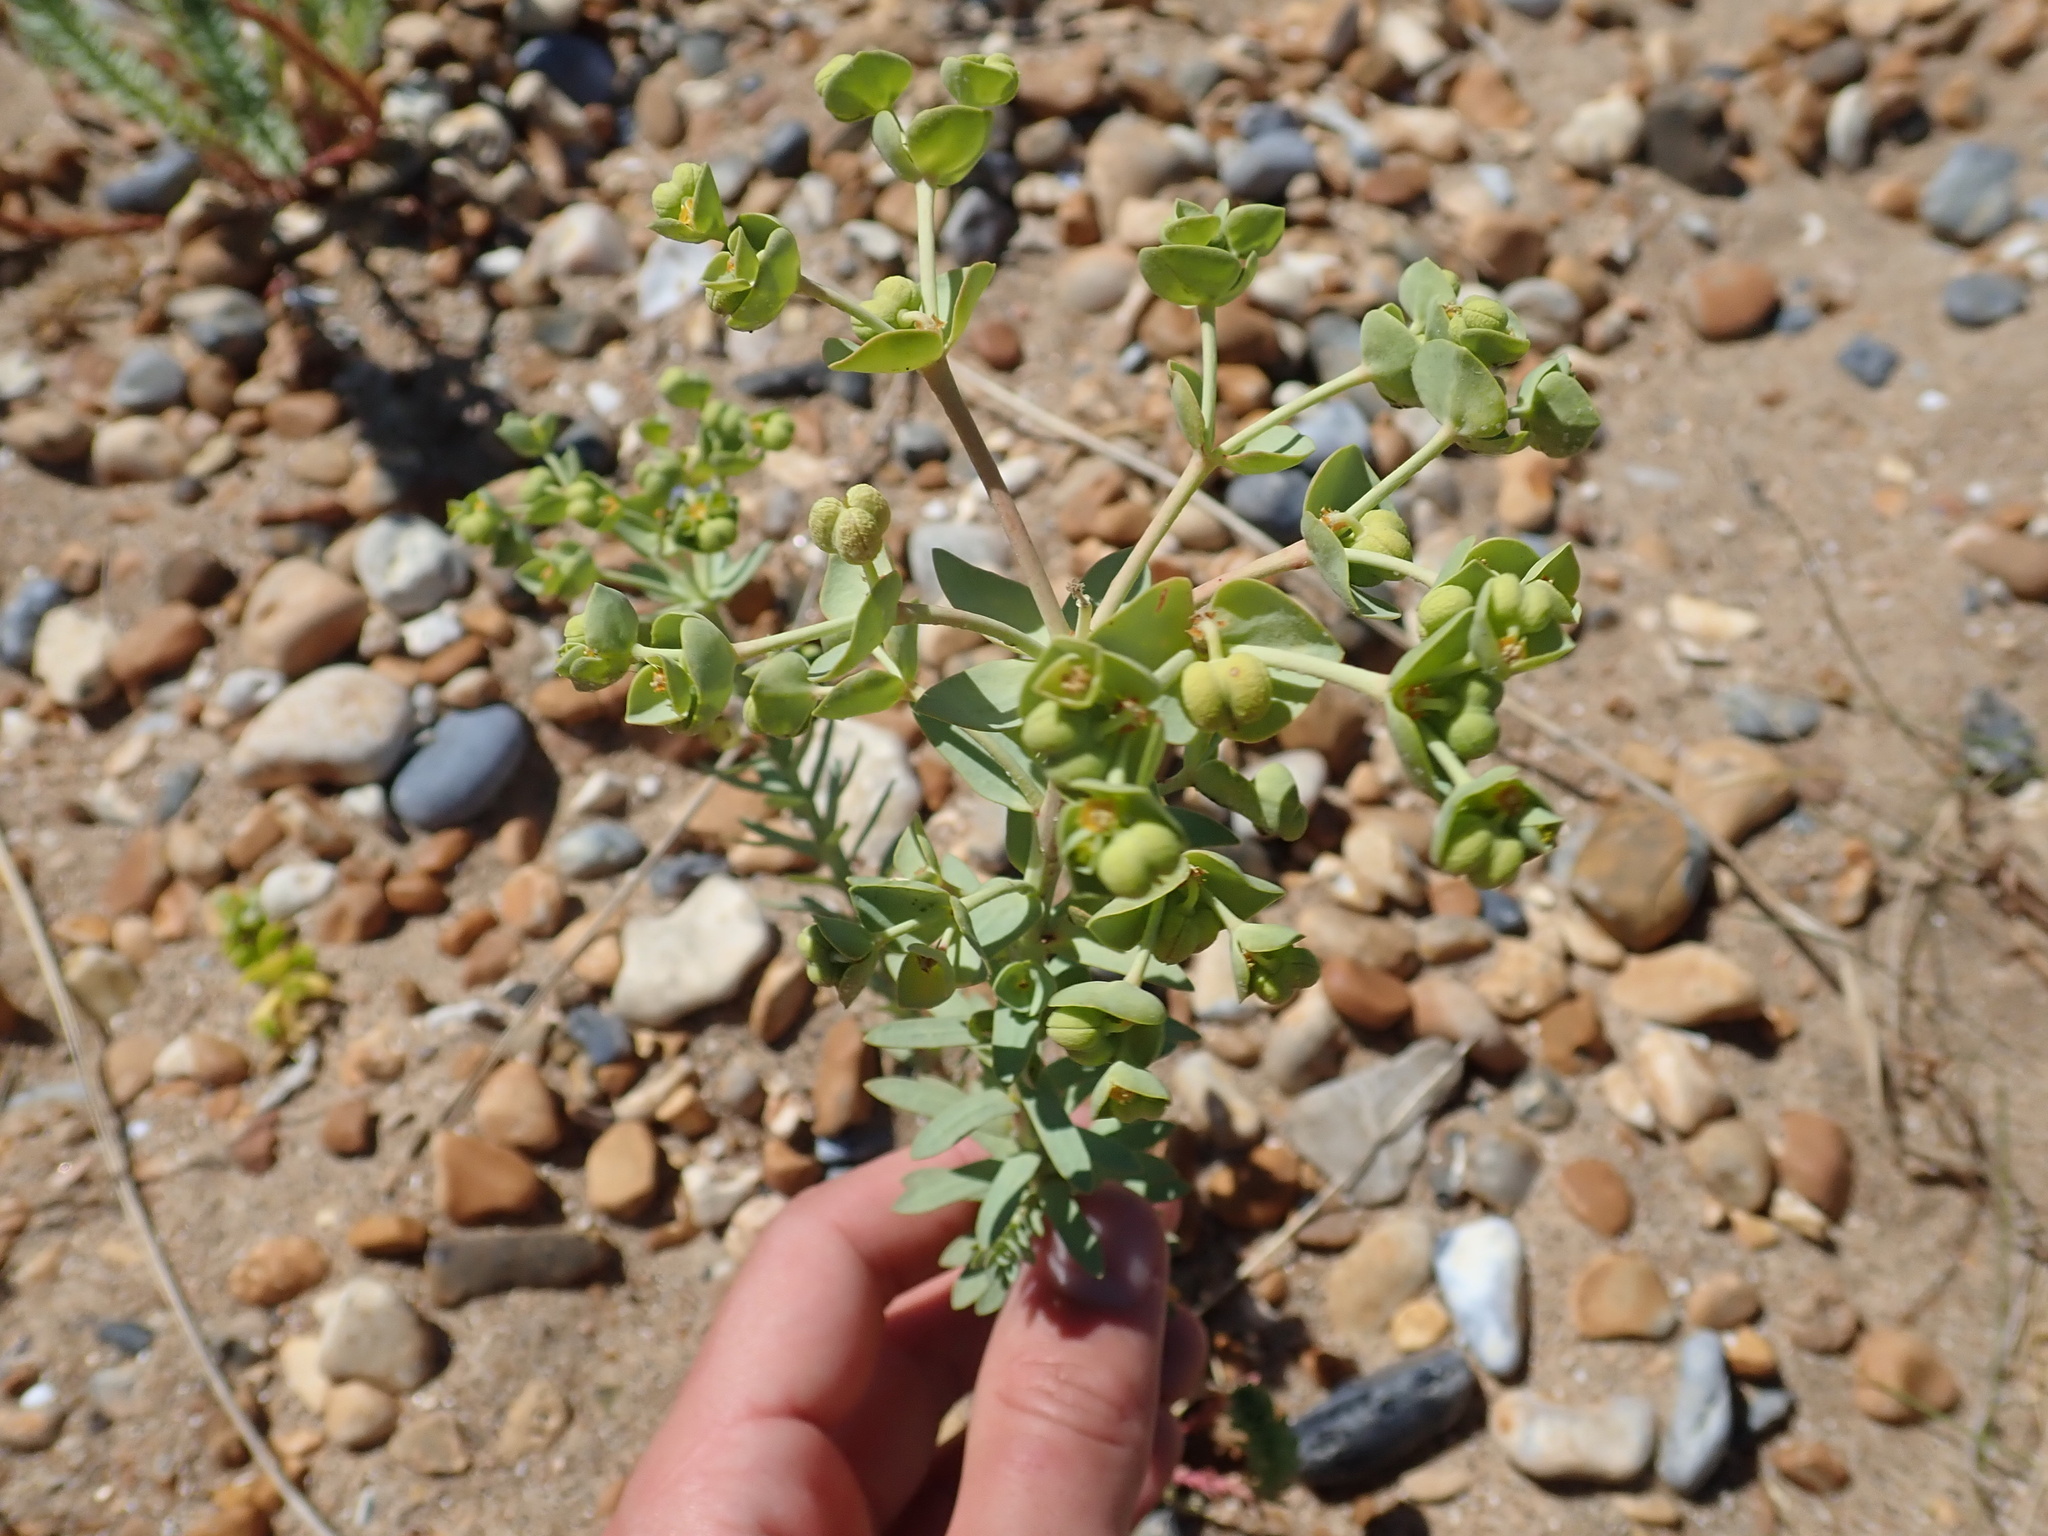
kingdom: Plantae
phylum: Tracheophyta
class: Magnoliopsida
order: Malpighiales
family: Euphorbiaceae
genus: Euphorbia
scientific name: Euphorbia paralias
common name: Sea spurge
